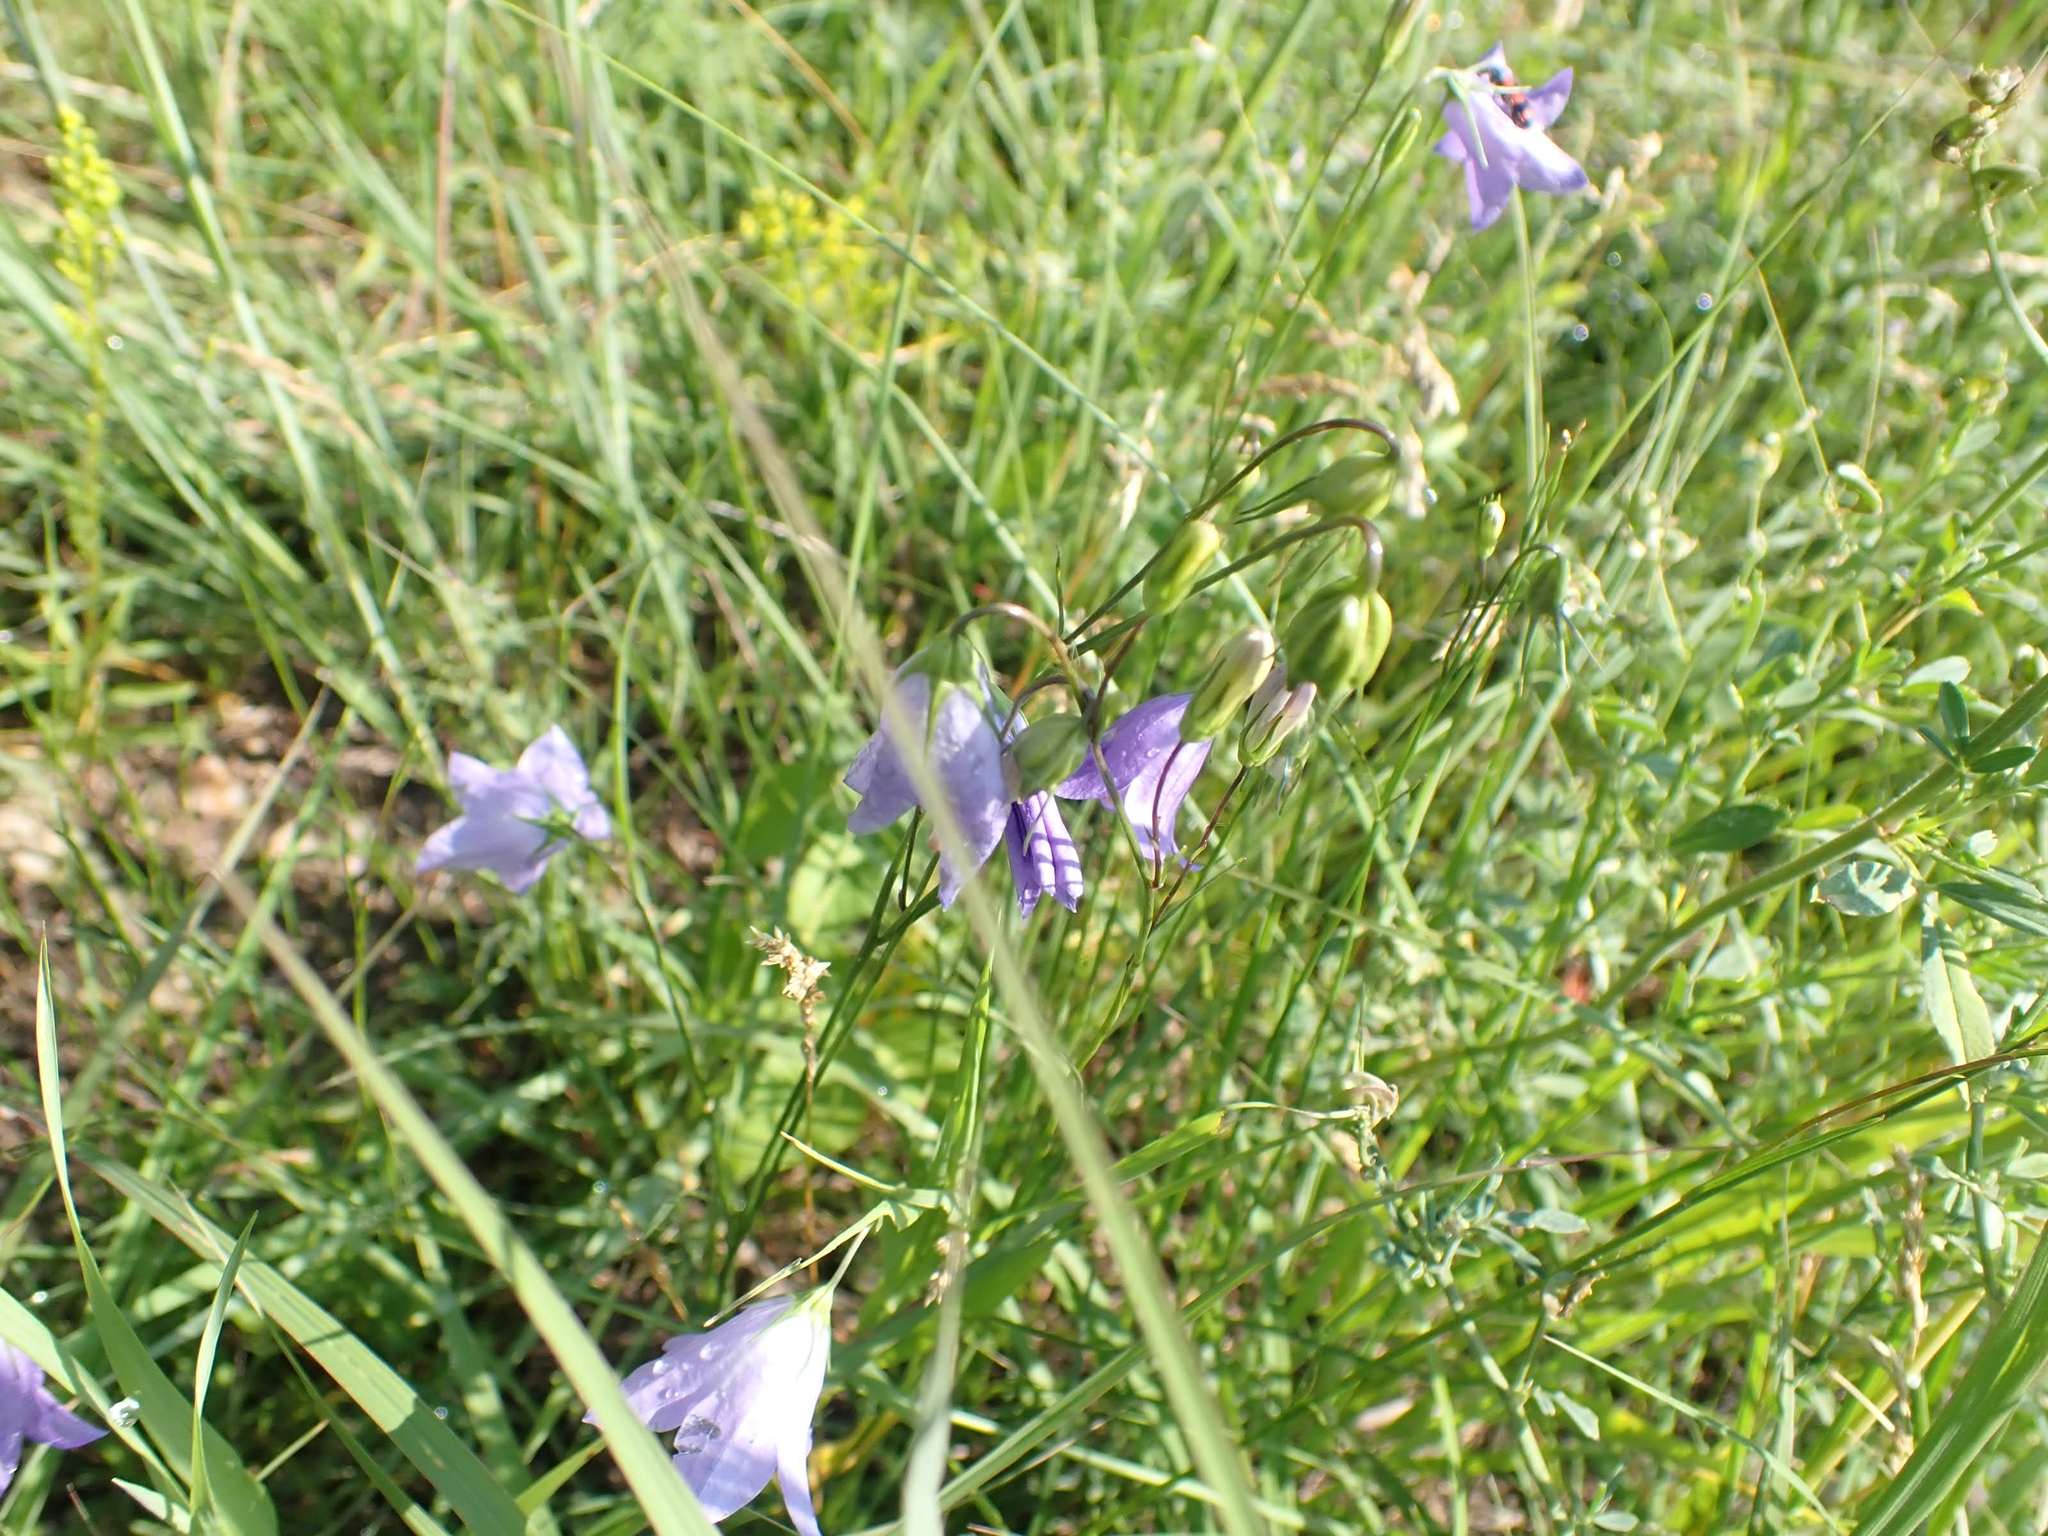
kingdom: Plantae
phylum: Tracheophyta
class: Magnoliopsida
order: Asterales
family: Campanulaceae
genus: Campanula
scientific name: Campanula petiolata
